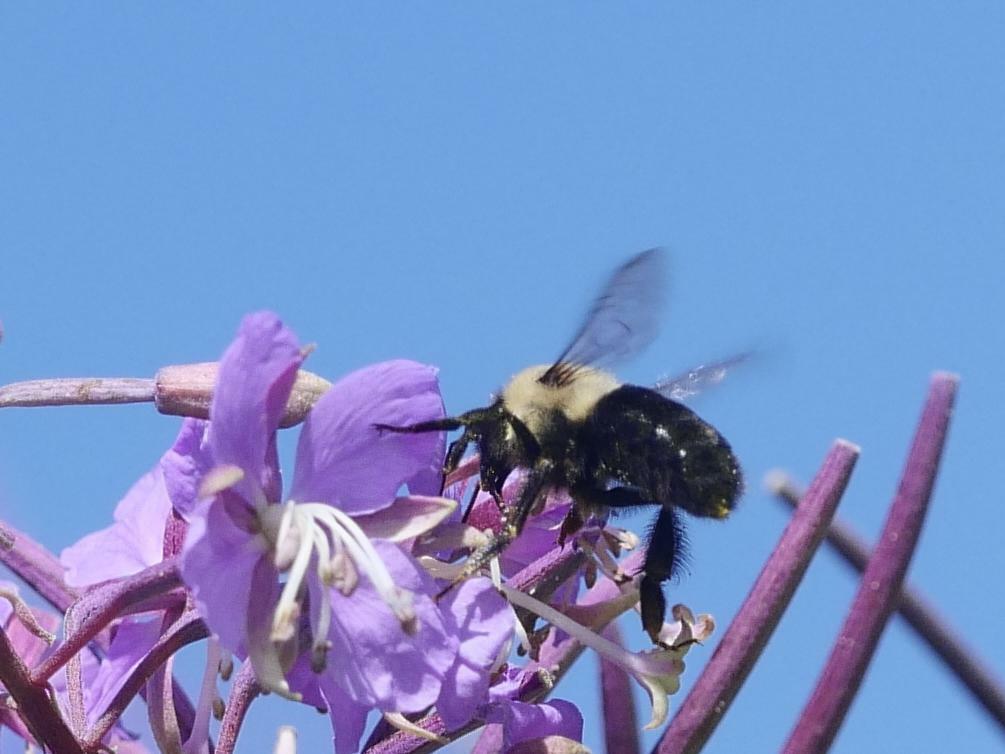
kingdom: Animalia
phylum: Arthropoda
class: Insecta
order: Hymenoptera
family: Apidae
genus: Bombus
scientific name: Bombus impatiens
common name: Common eastern bumble bee
